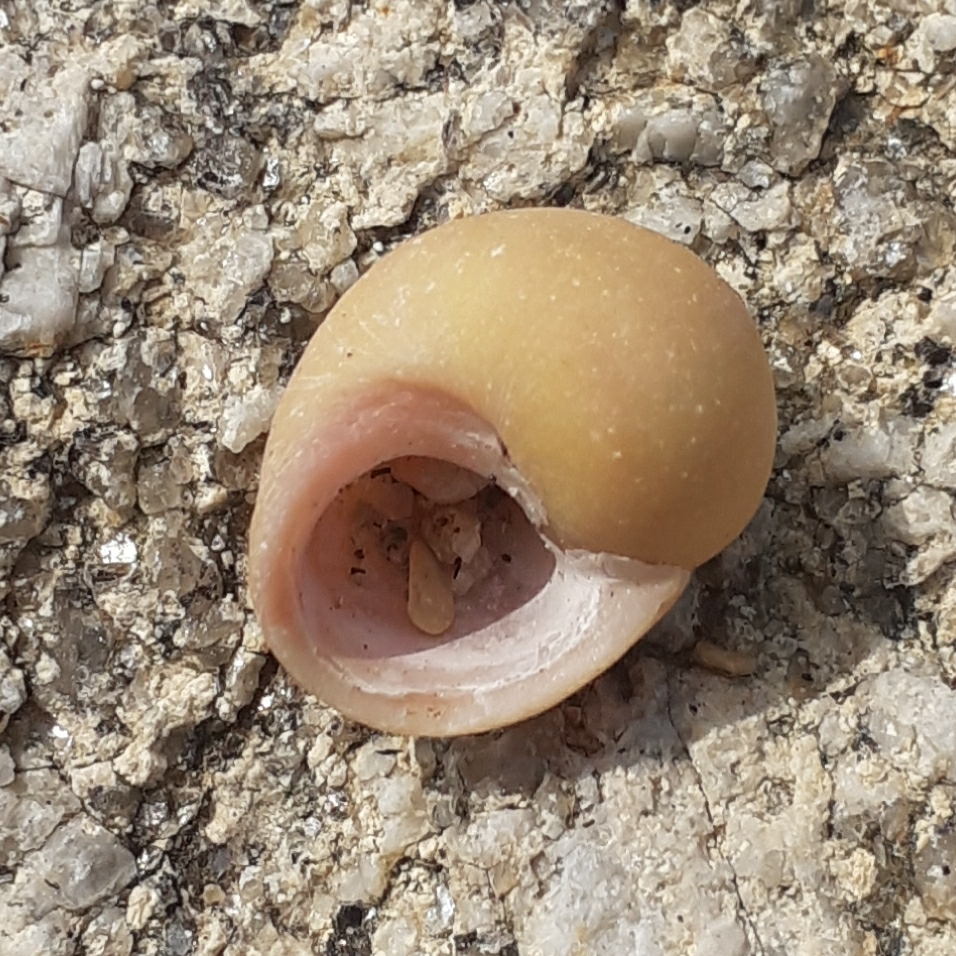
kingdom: Animalia
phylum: Mollusca
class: Gastropoda
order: Littorinimorpha
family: Littorinidae
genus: Littorina
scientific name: Littorina obtusata
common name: Flat periwinkle
